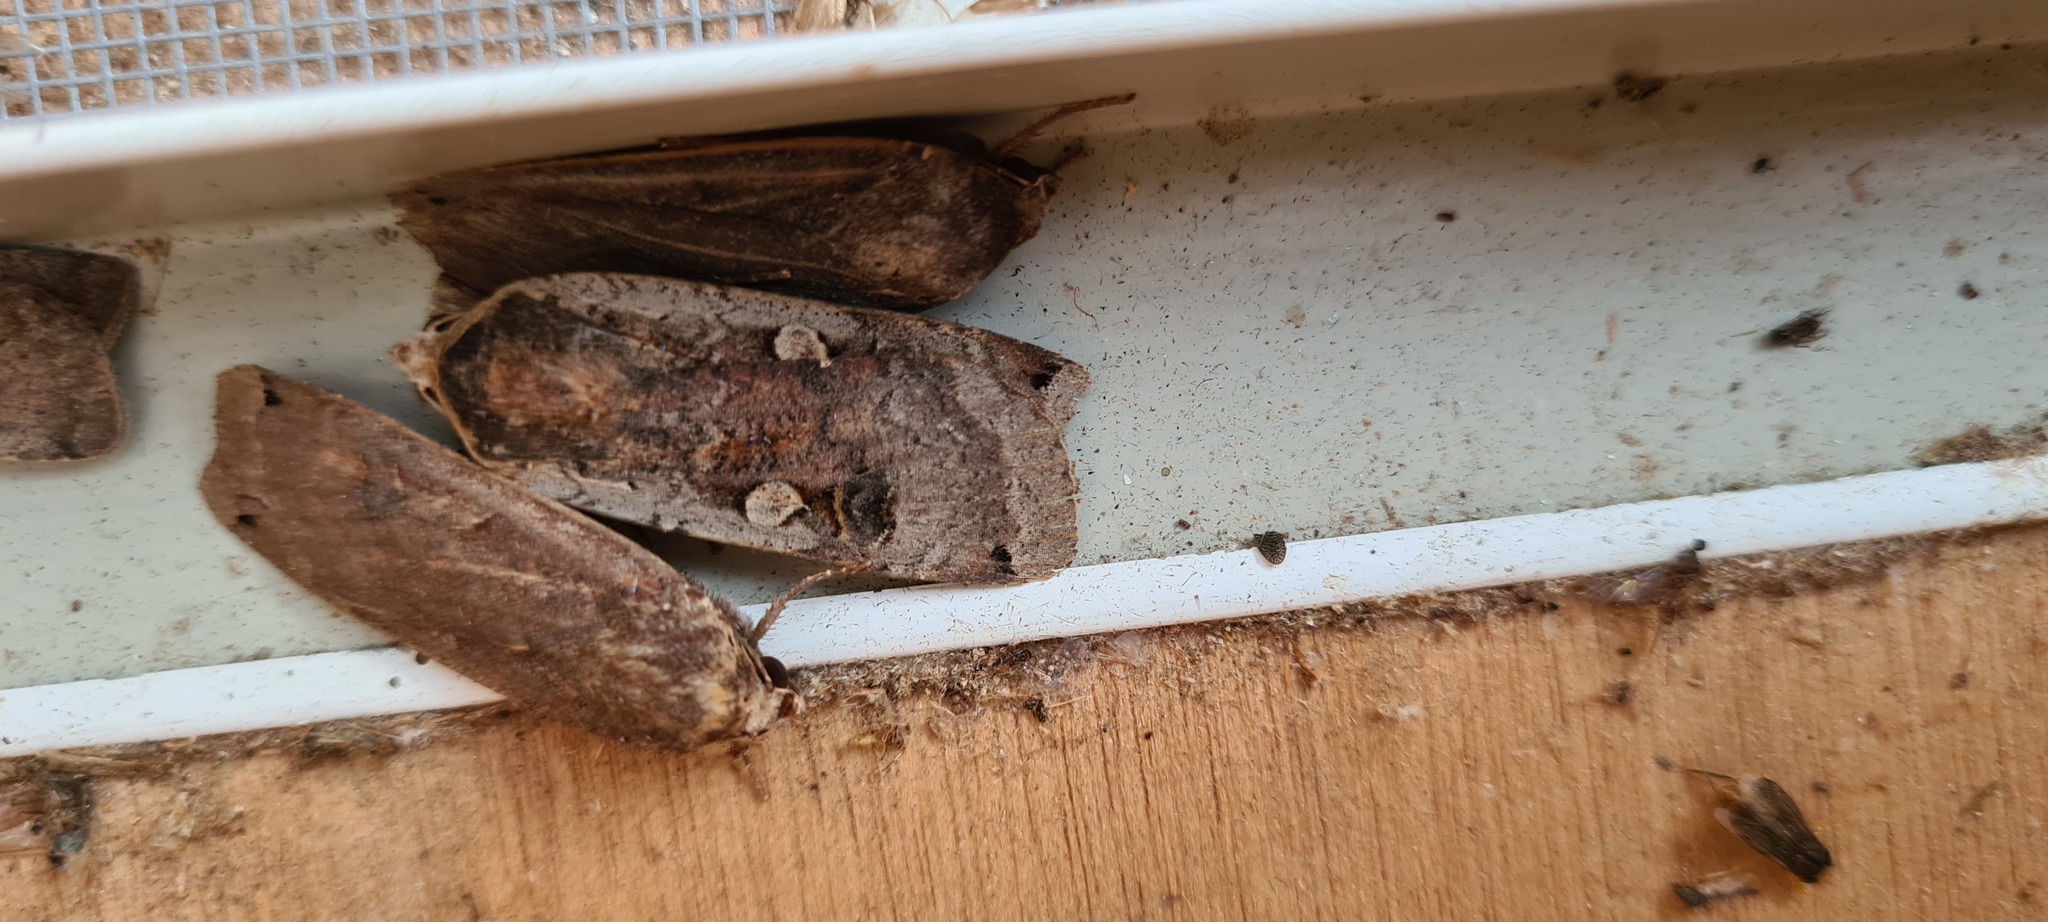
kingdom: Animalia
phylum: Arthropoda
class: Insecta
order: Lepidoptera
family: Noctuidae
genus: Noctua
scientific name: Noctua pronuba
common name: Large yellow underwing
